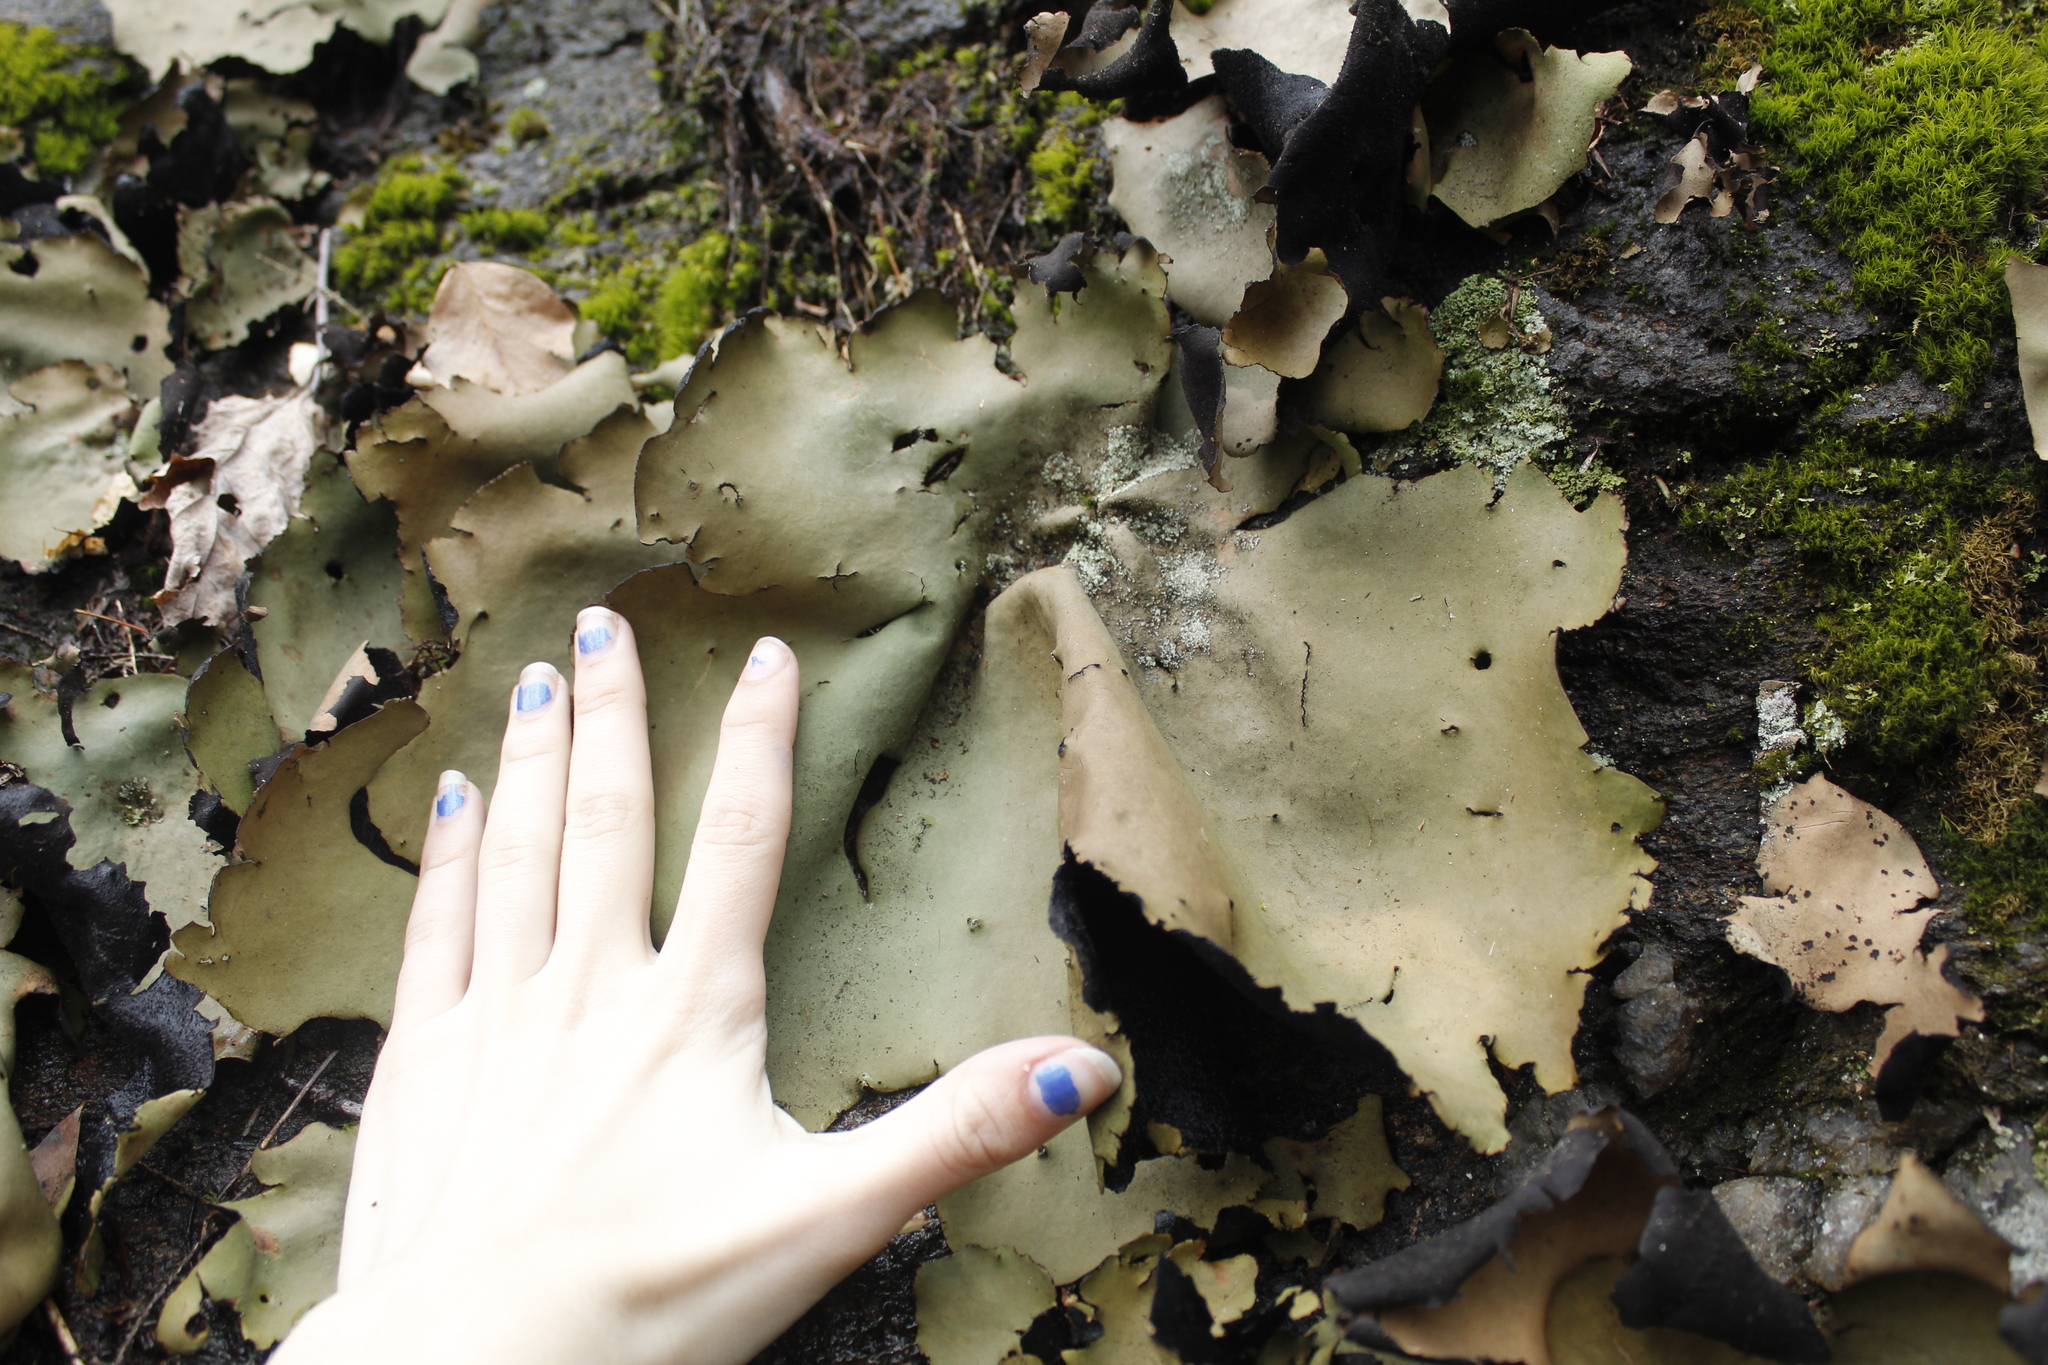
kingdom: Fungi
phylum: Ascomycota
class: Lecanoromycetes
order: Umbilicariales
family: Umbilicariaceae
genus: Umbilicaria
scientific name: Umbilicaria mammulata
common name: Smooth rock tripe
